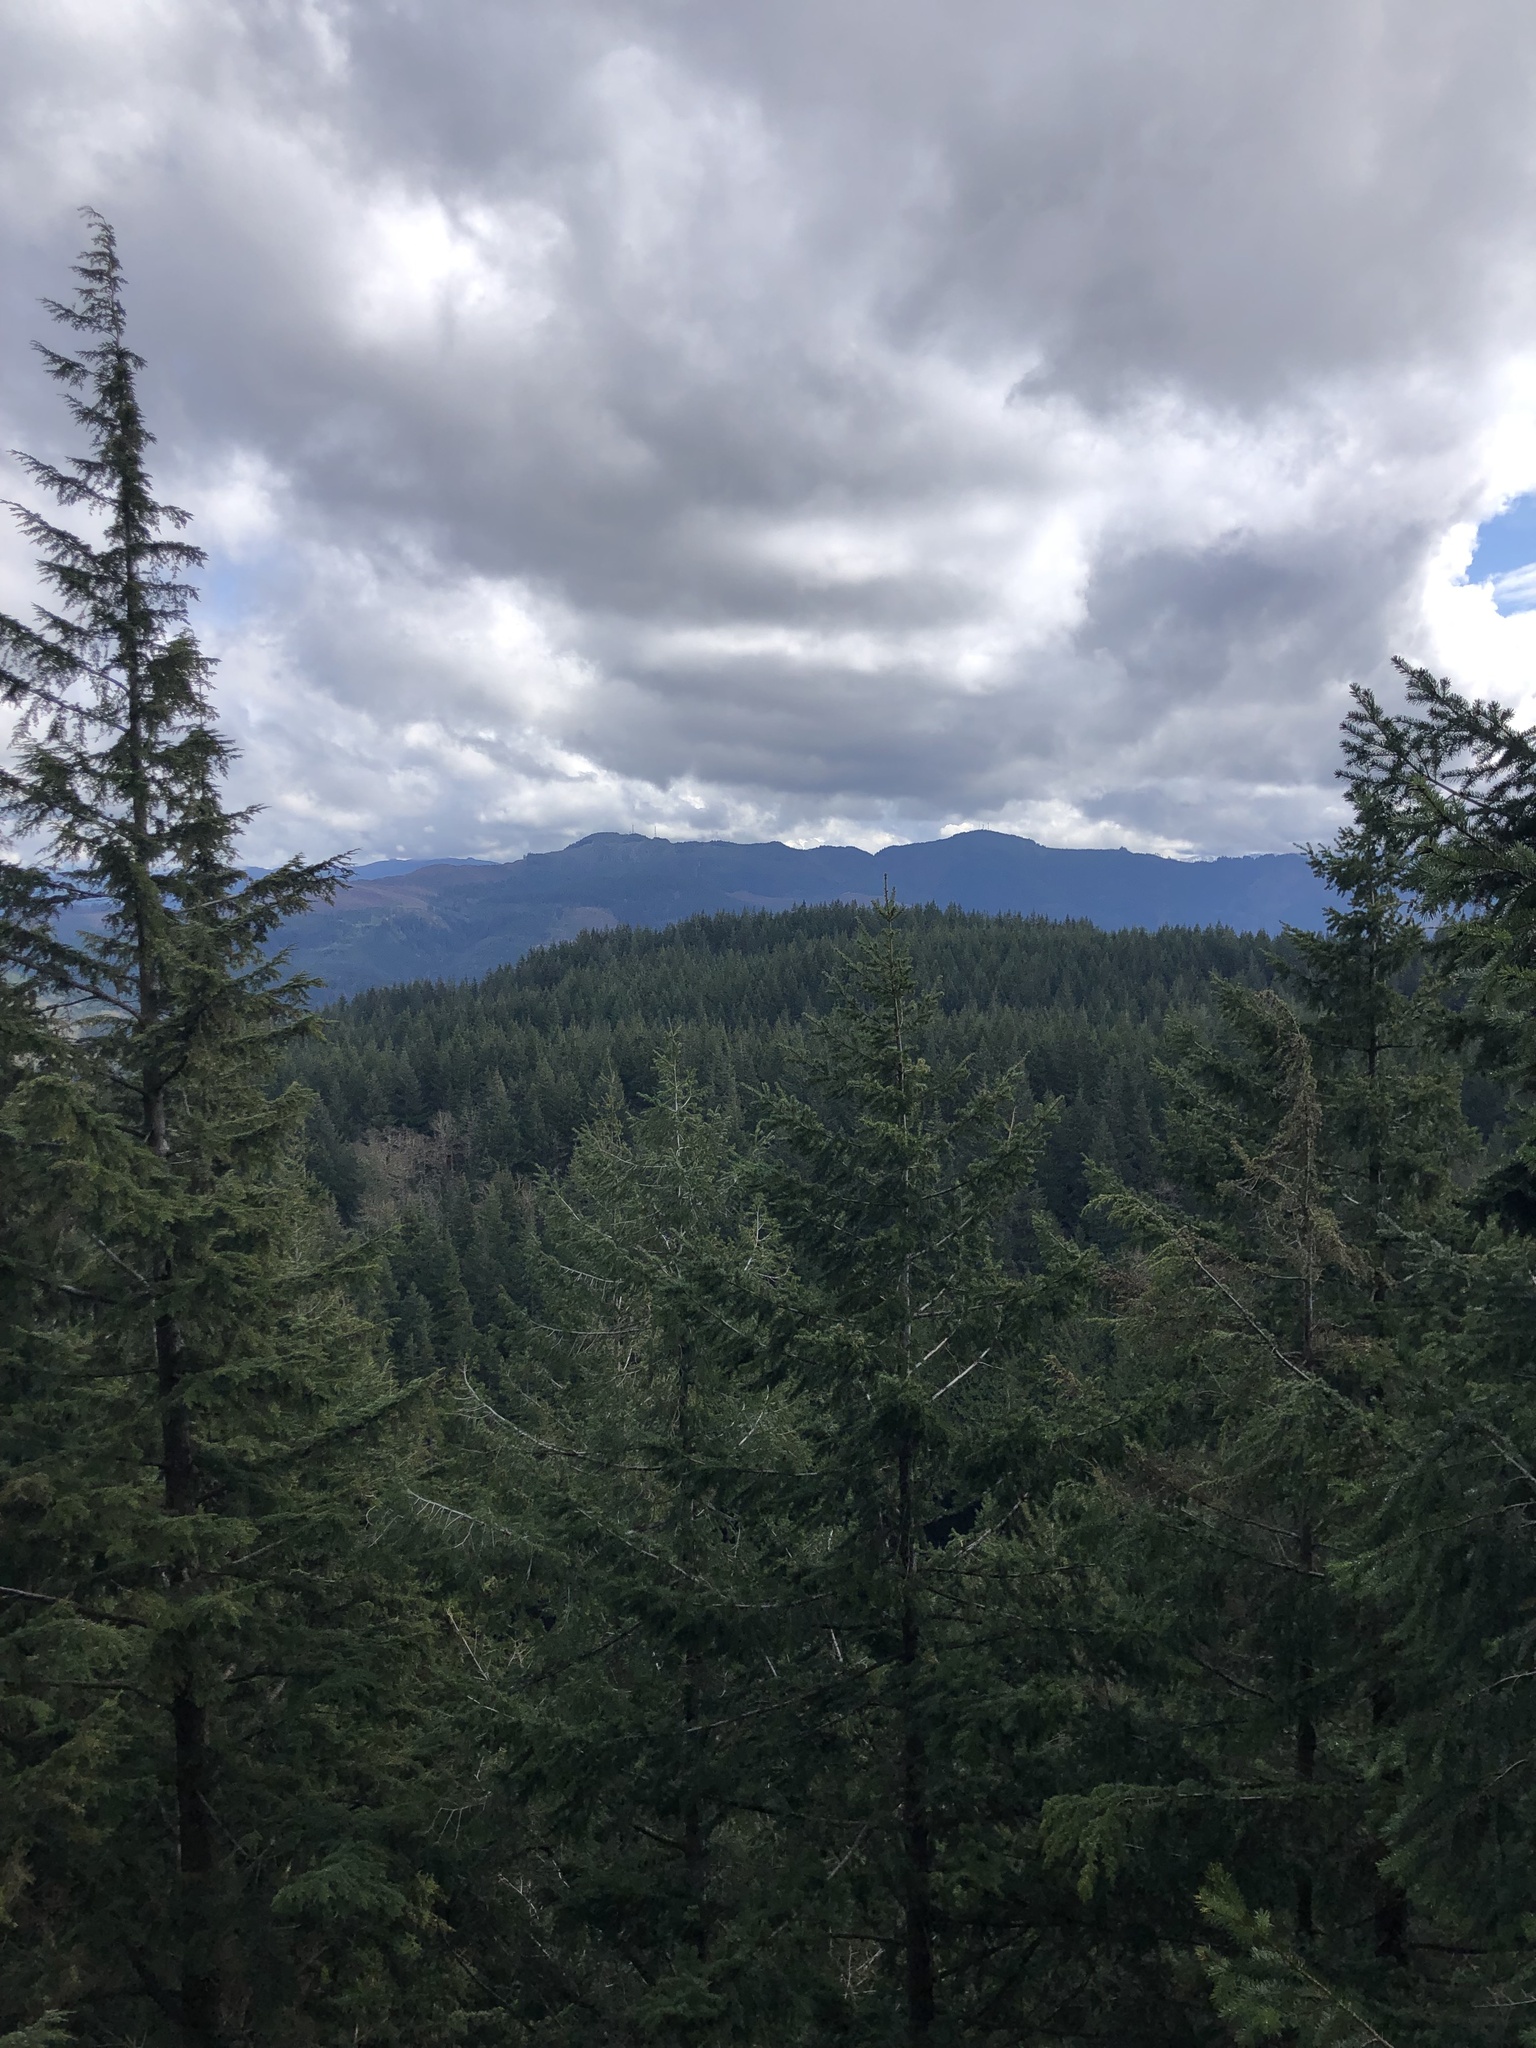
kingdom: Plantae
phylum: Tracheophyta
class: Pinopsida
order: Pinales
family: Pinaceae
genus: Pseudotsuga
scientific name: Pseudotsuga menziesii
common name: Douglas fir
